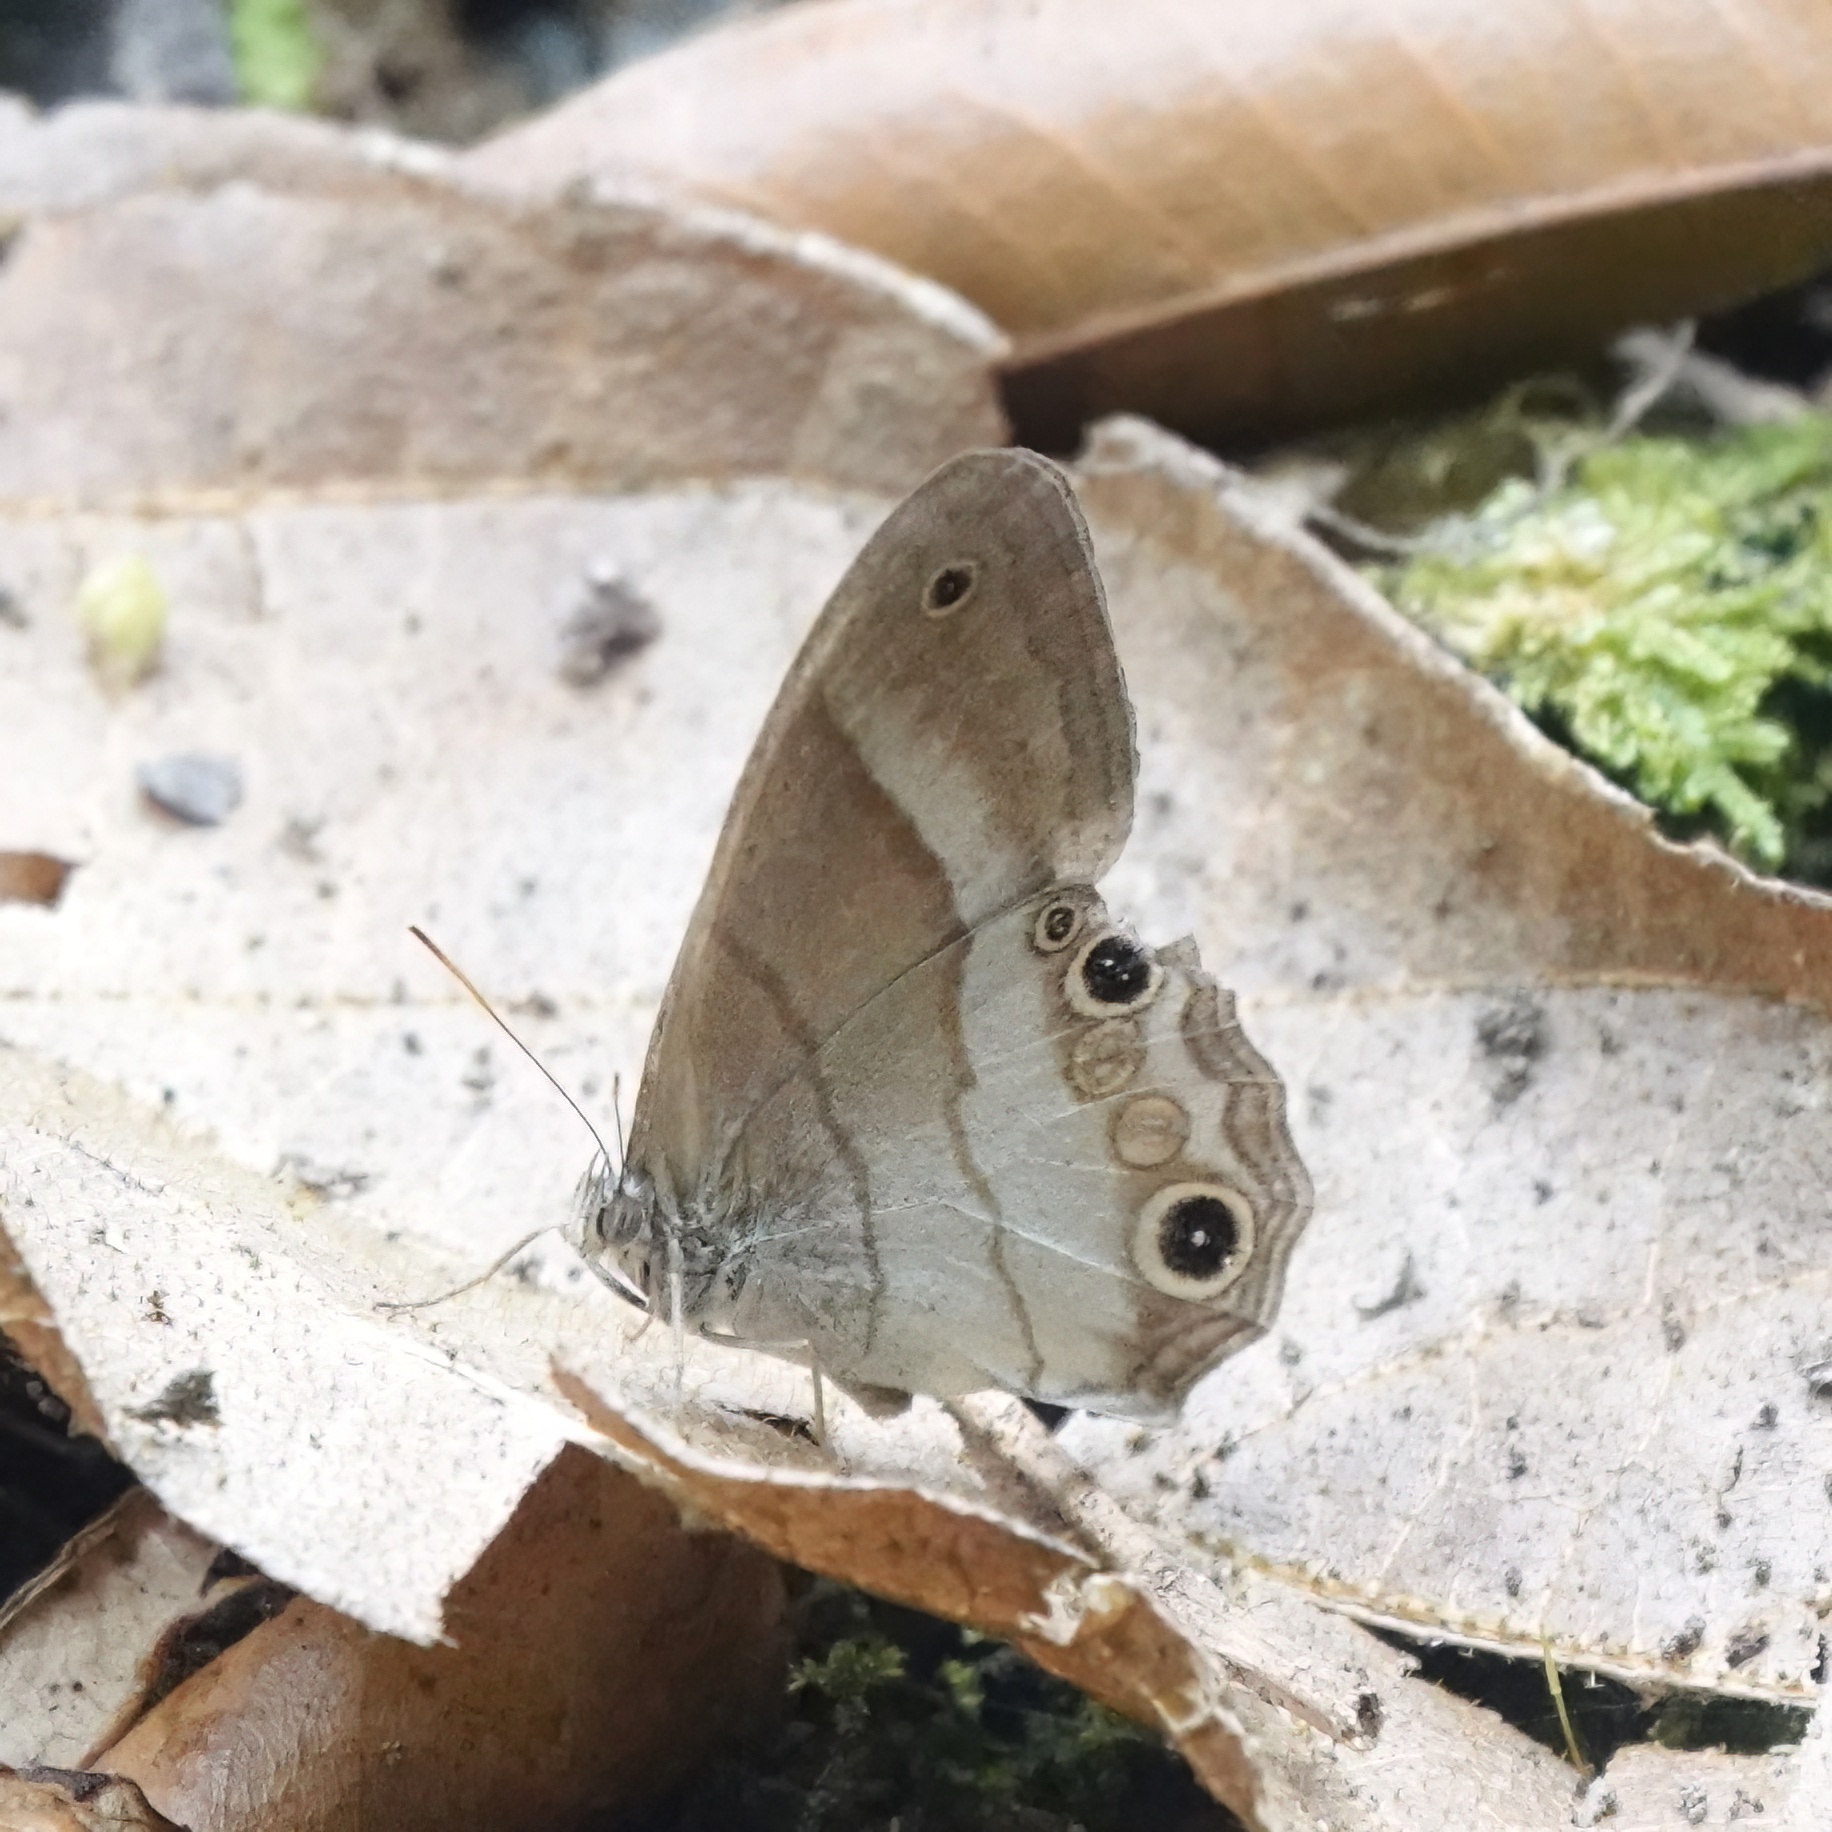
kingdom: Animalia
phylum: Arthropoda
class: Insecta
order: Lepidoptera
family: Nymphalidae
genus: Euptychoides
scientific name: Euptychoides saturnus
